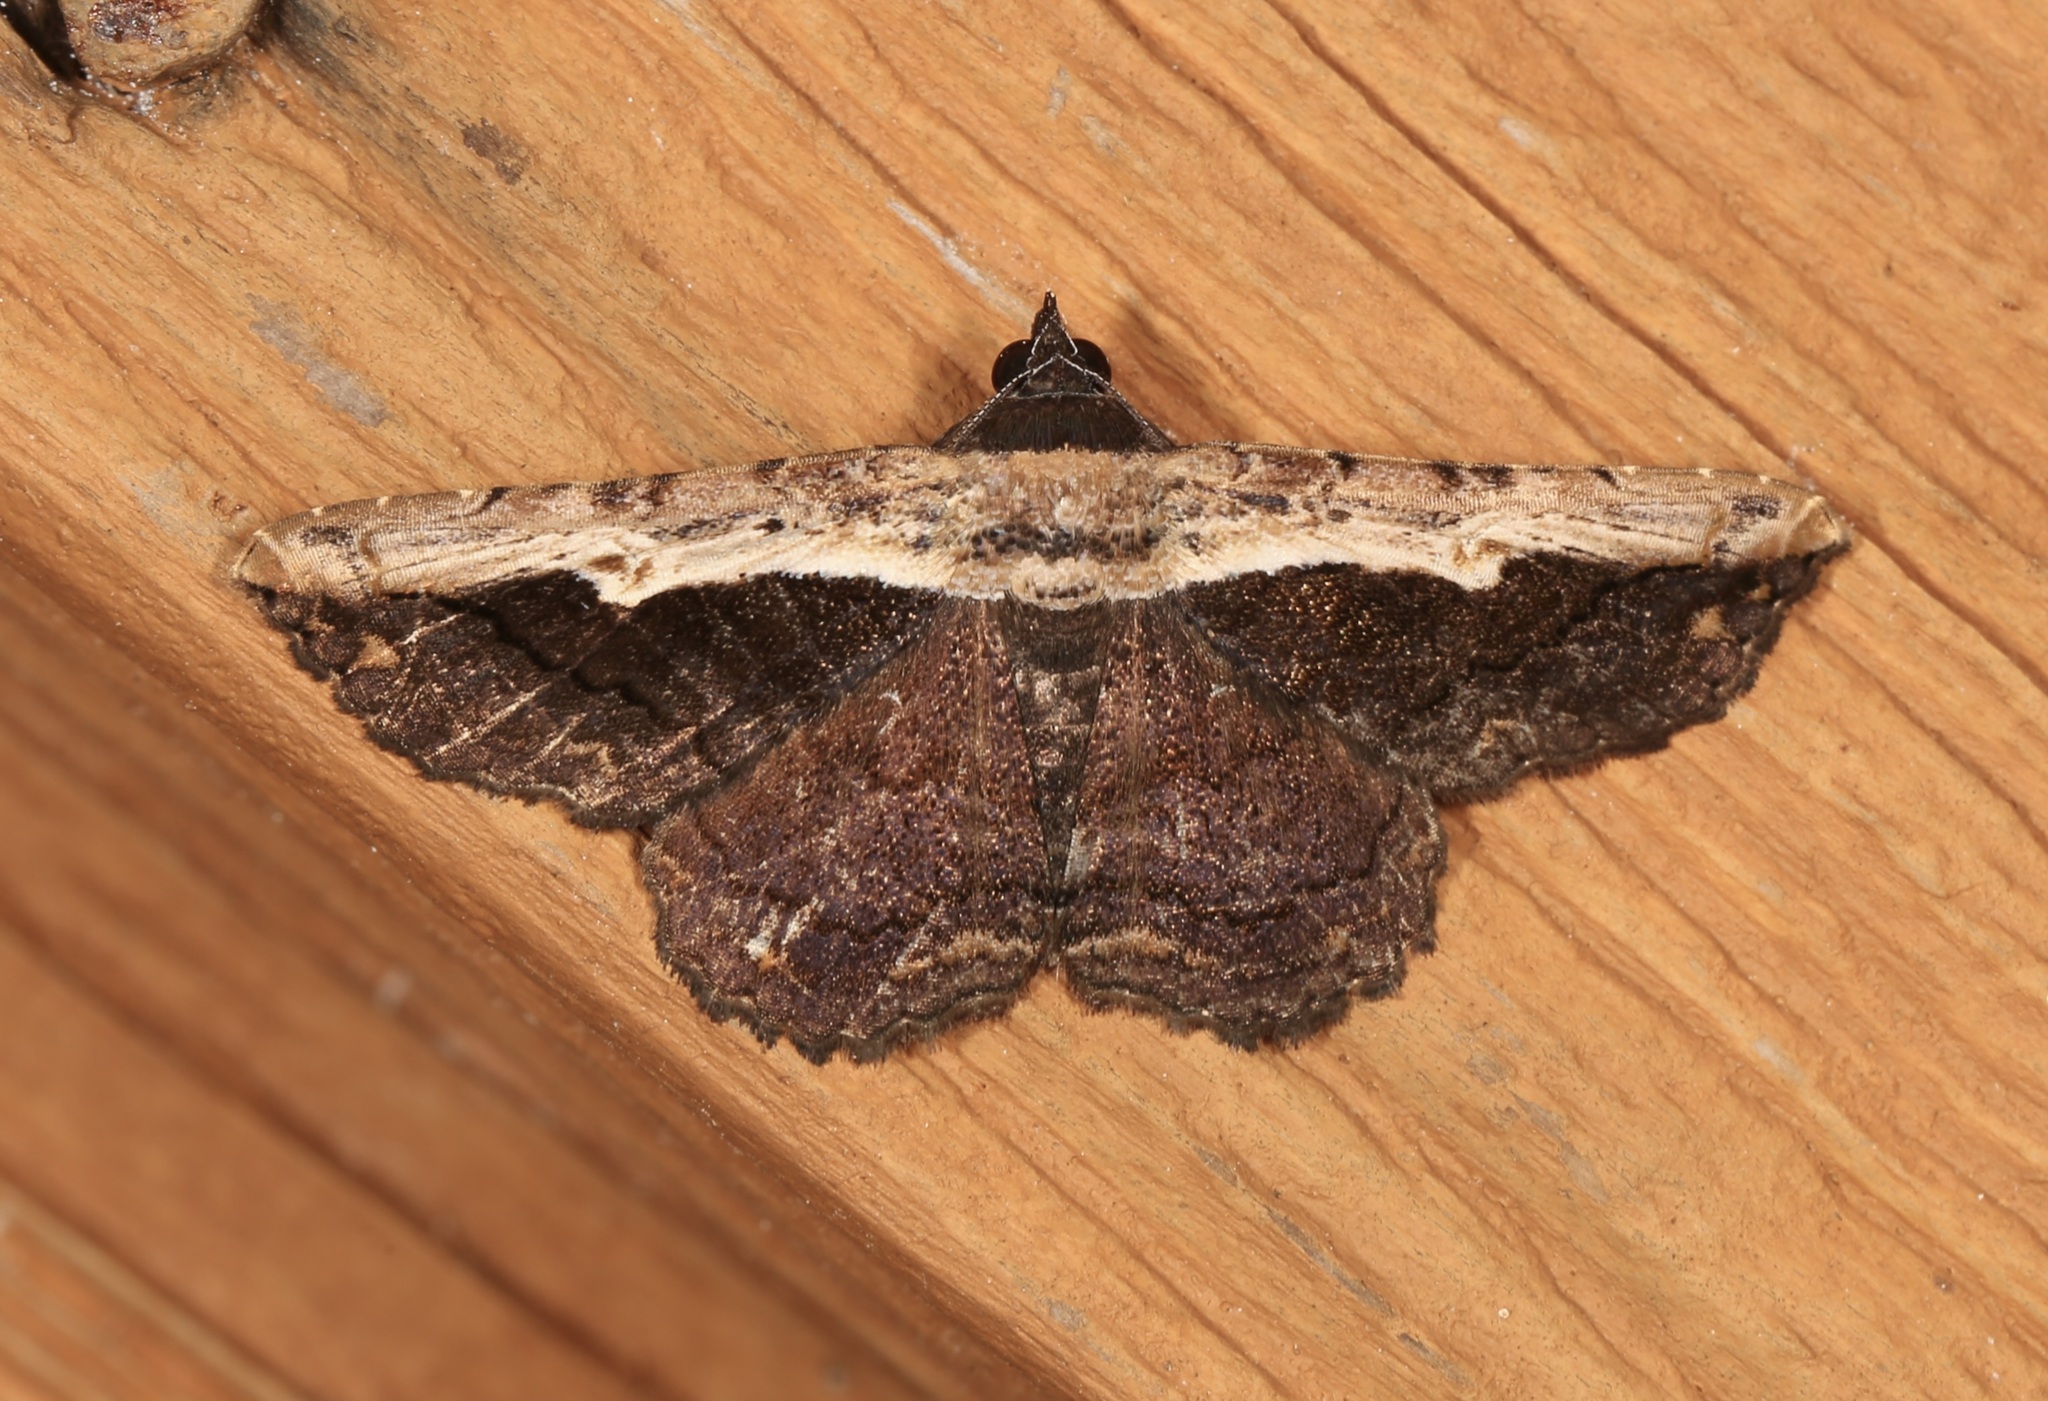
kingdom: Animalia
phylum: Arthropoda
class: Insecta
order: Lepidoptera
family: Erebidae
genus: Selenisa
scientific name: Selenisa sueroides
